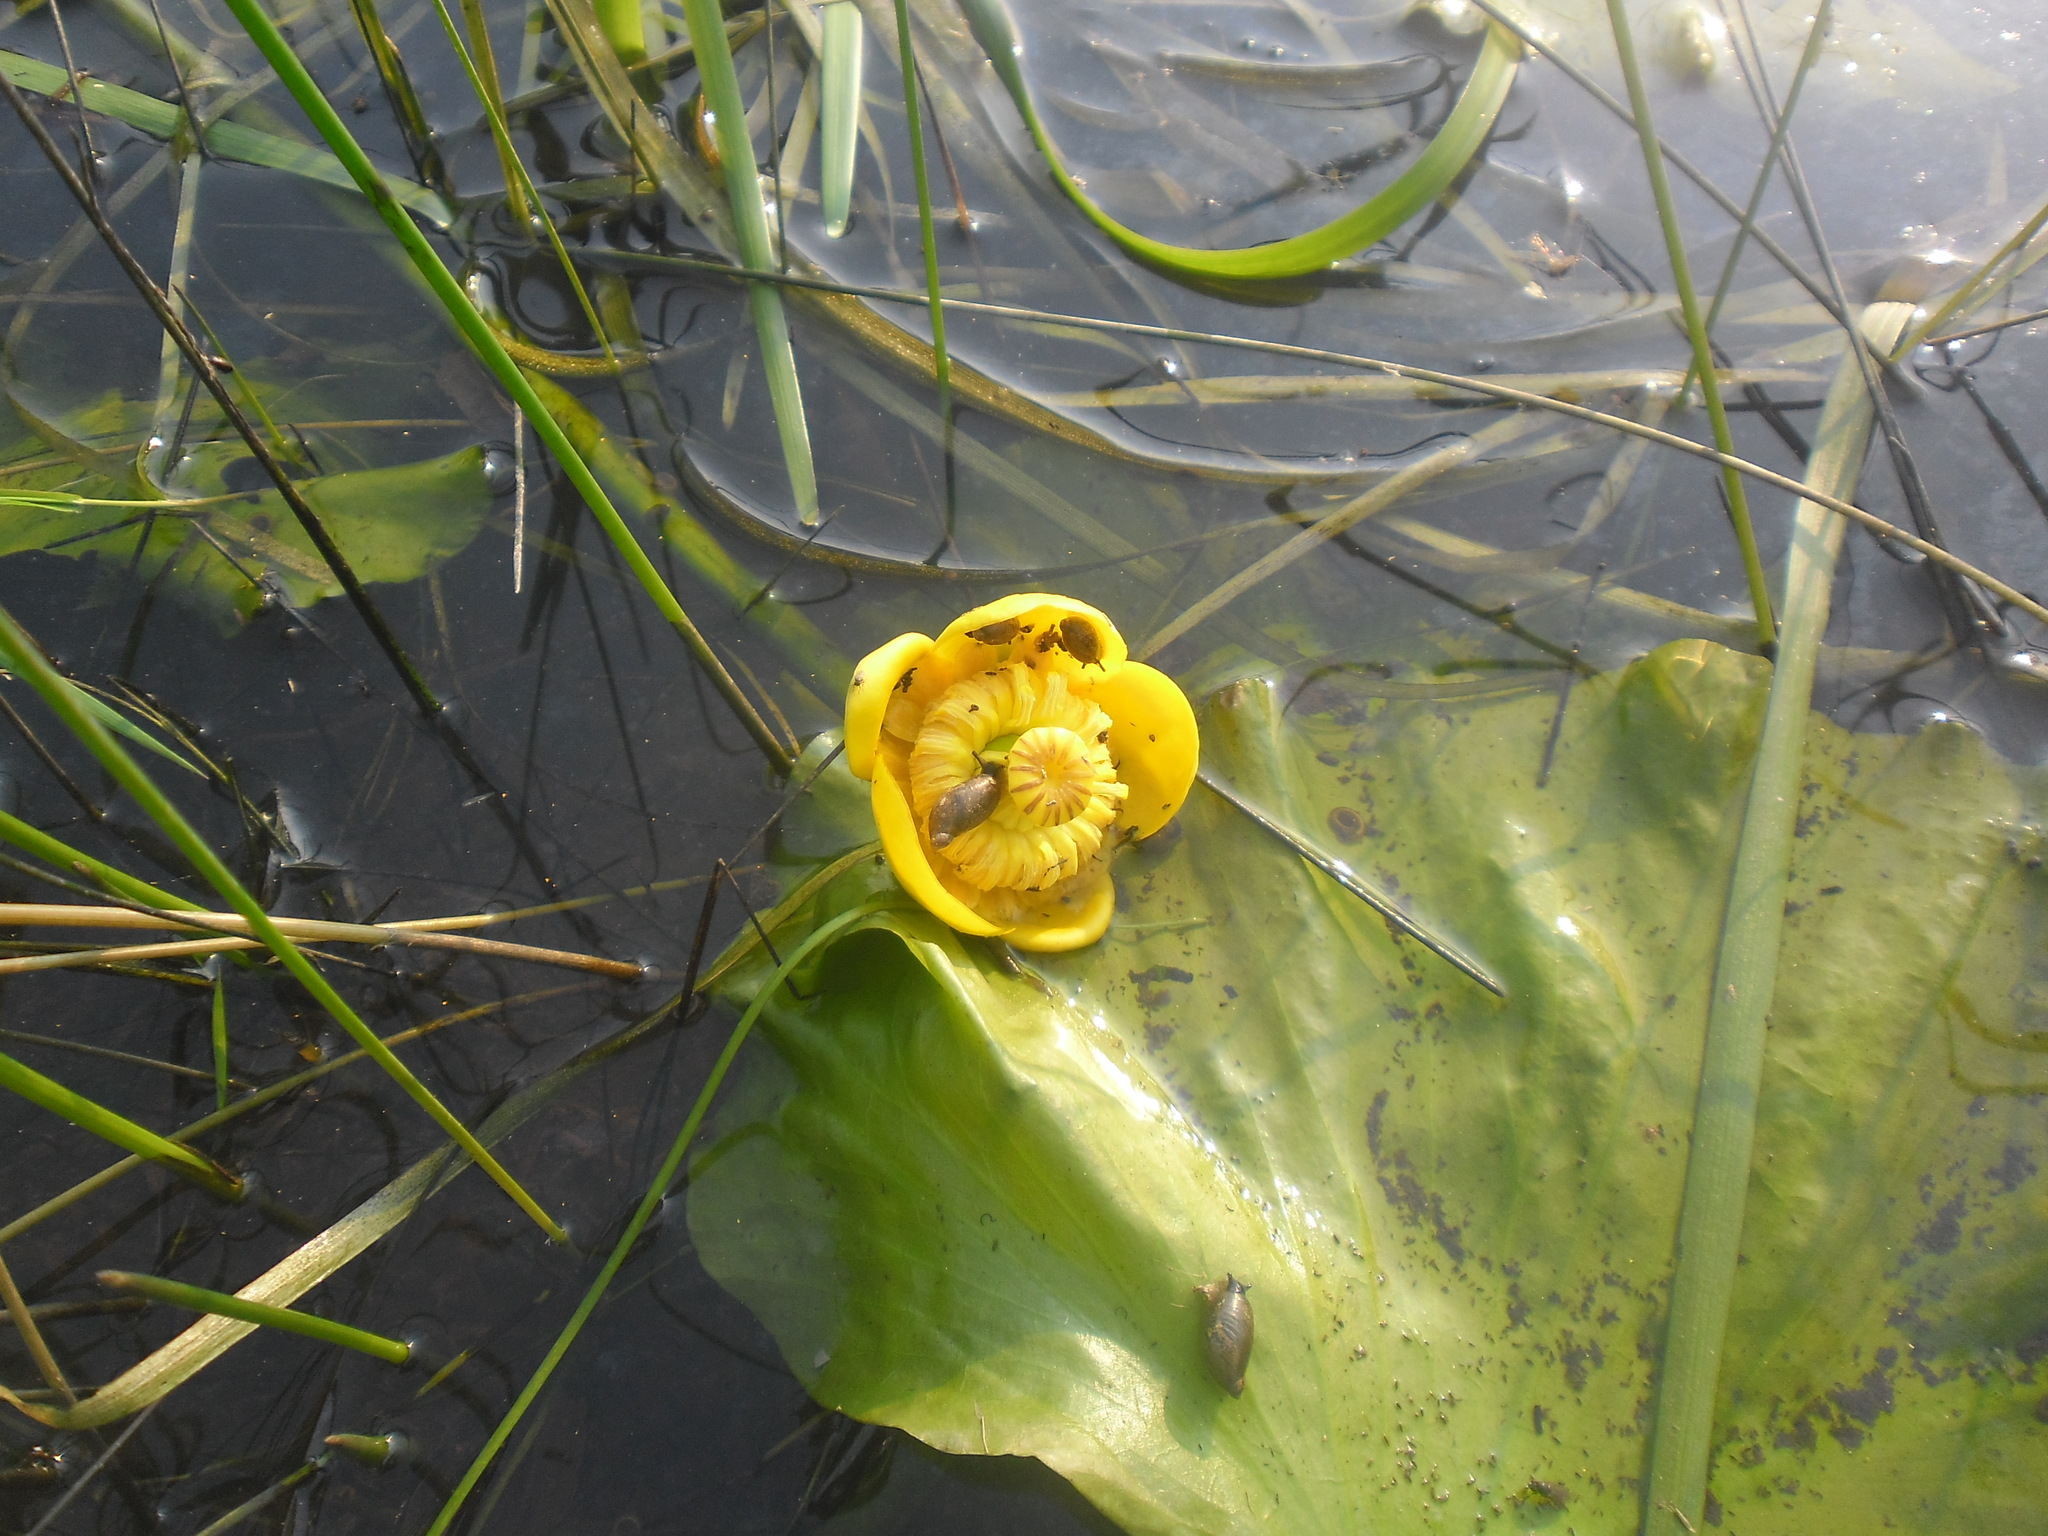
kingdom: Plantae
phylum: Tracheophyta
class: Magnoliopsida
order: Nymphaeales
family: Nymphaeaceae
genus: Nuphar
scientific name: Nuphar lutea
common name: Yellow water-lily
